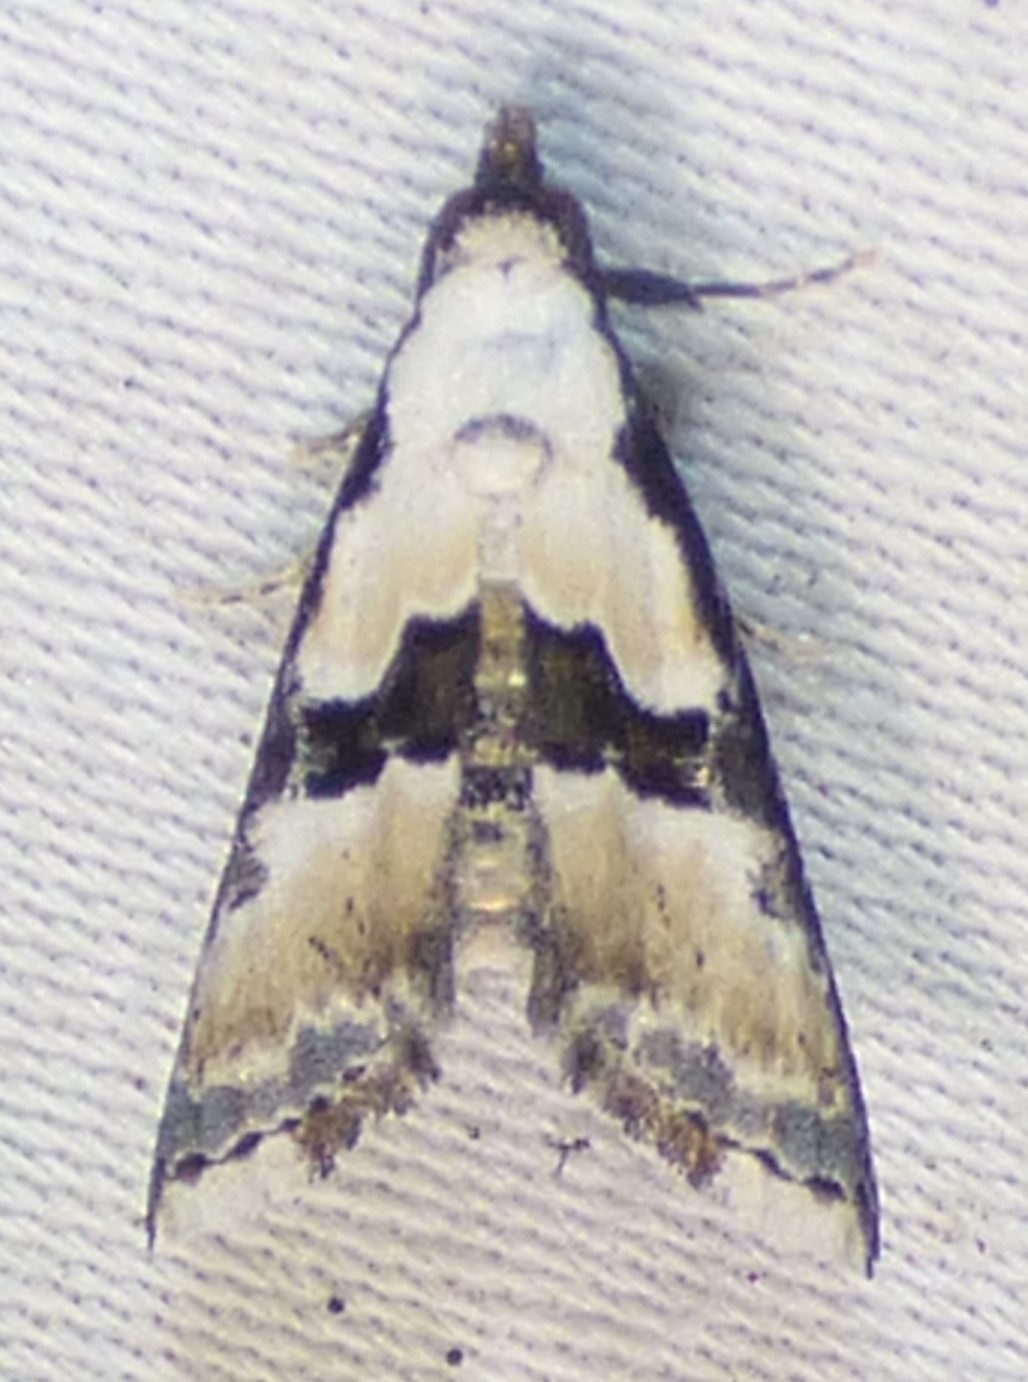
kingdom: Animalia
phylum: Arthropoda
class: Insecta
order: Lepidoptera
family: Noctuidae
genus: Nigetia
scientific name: Nigetia formosalis
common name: Thin-winged owlet
